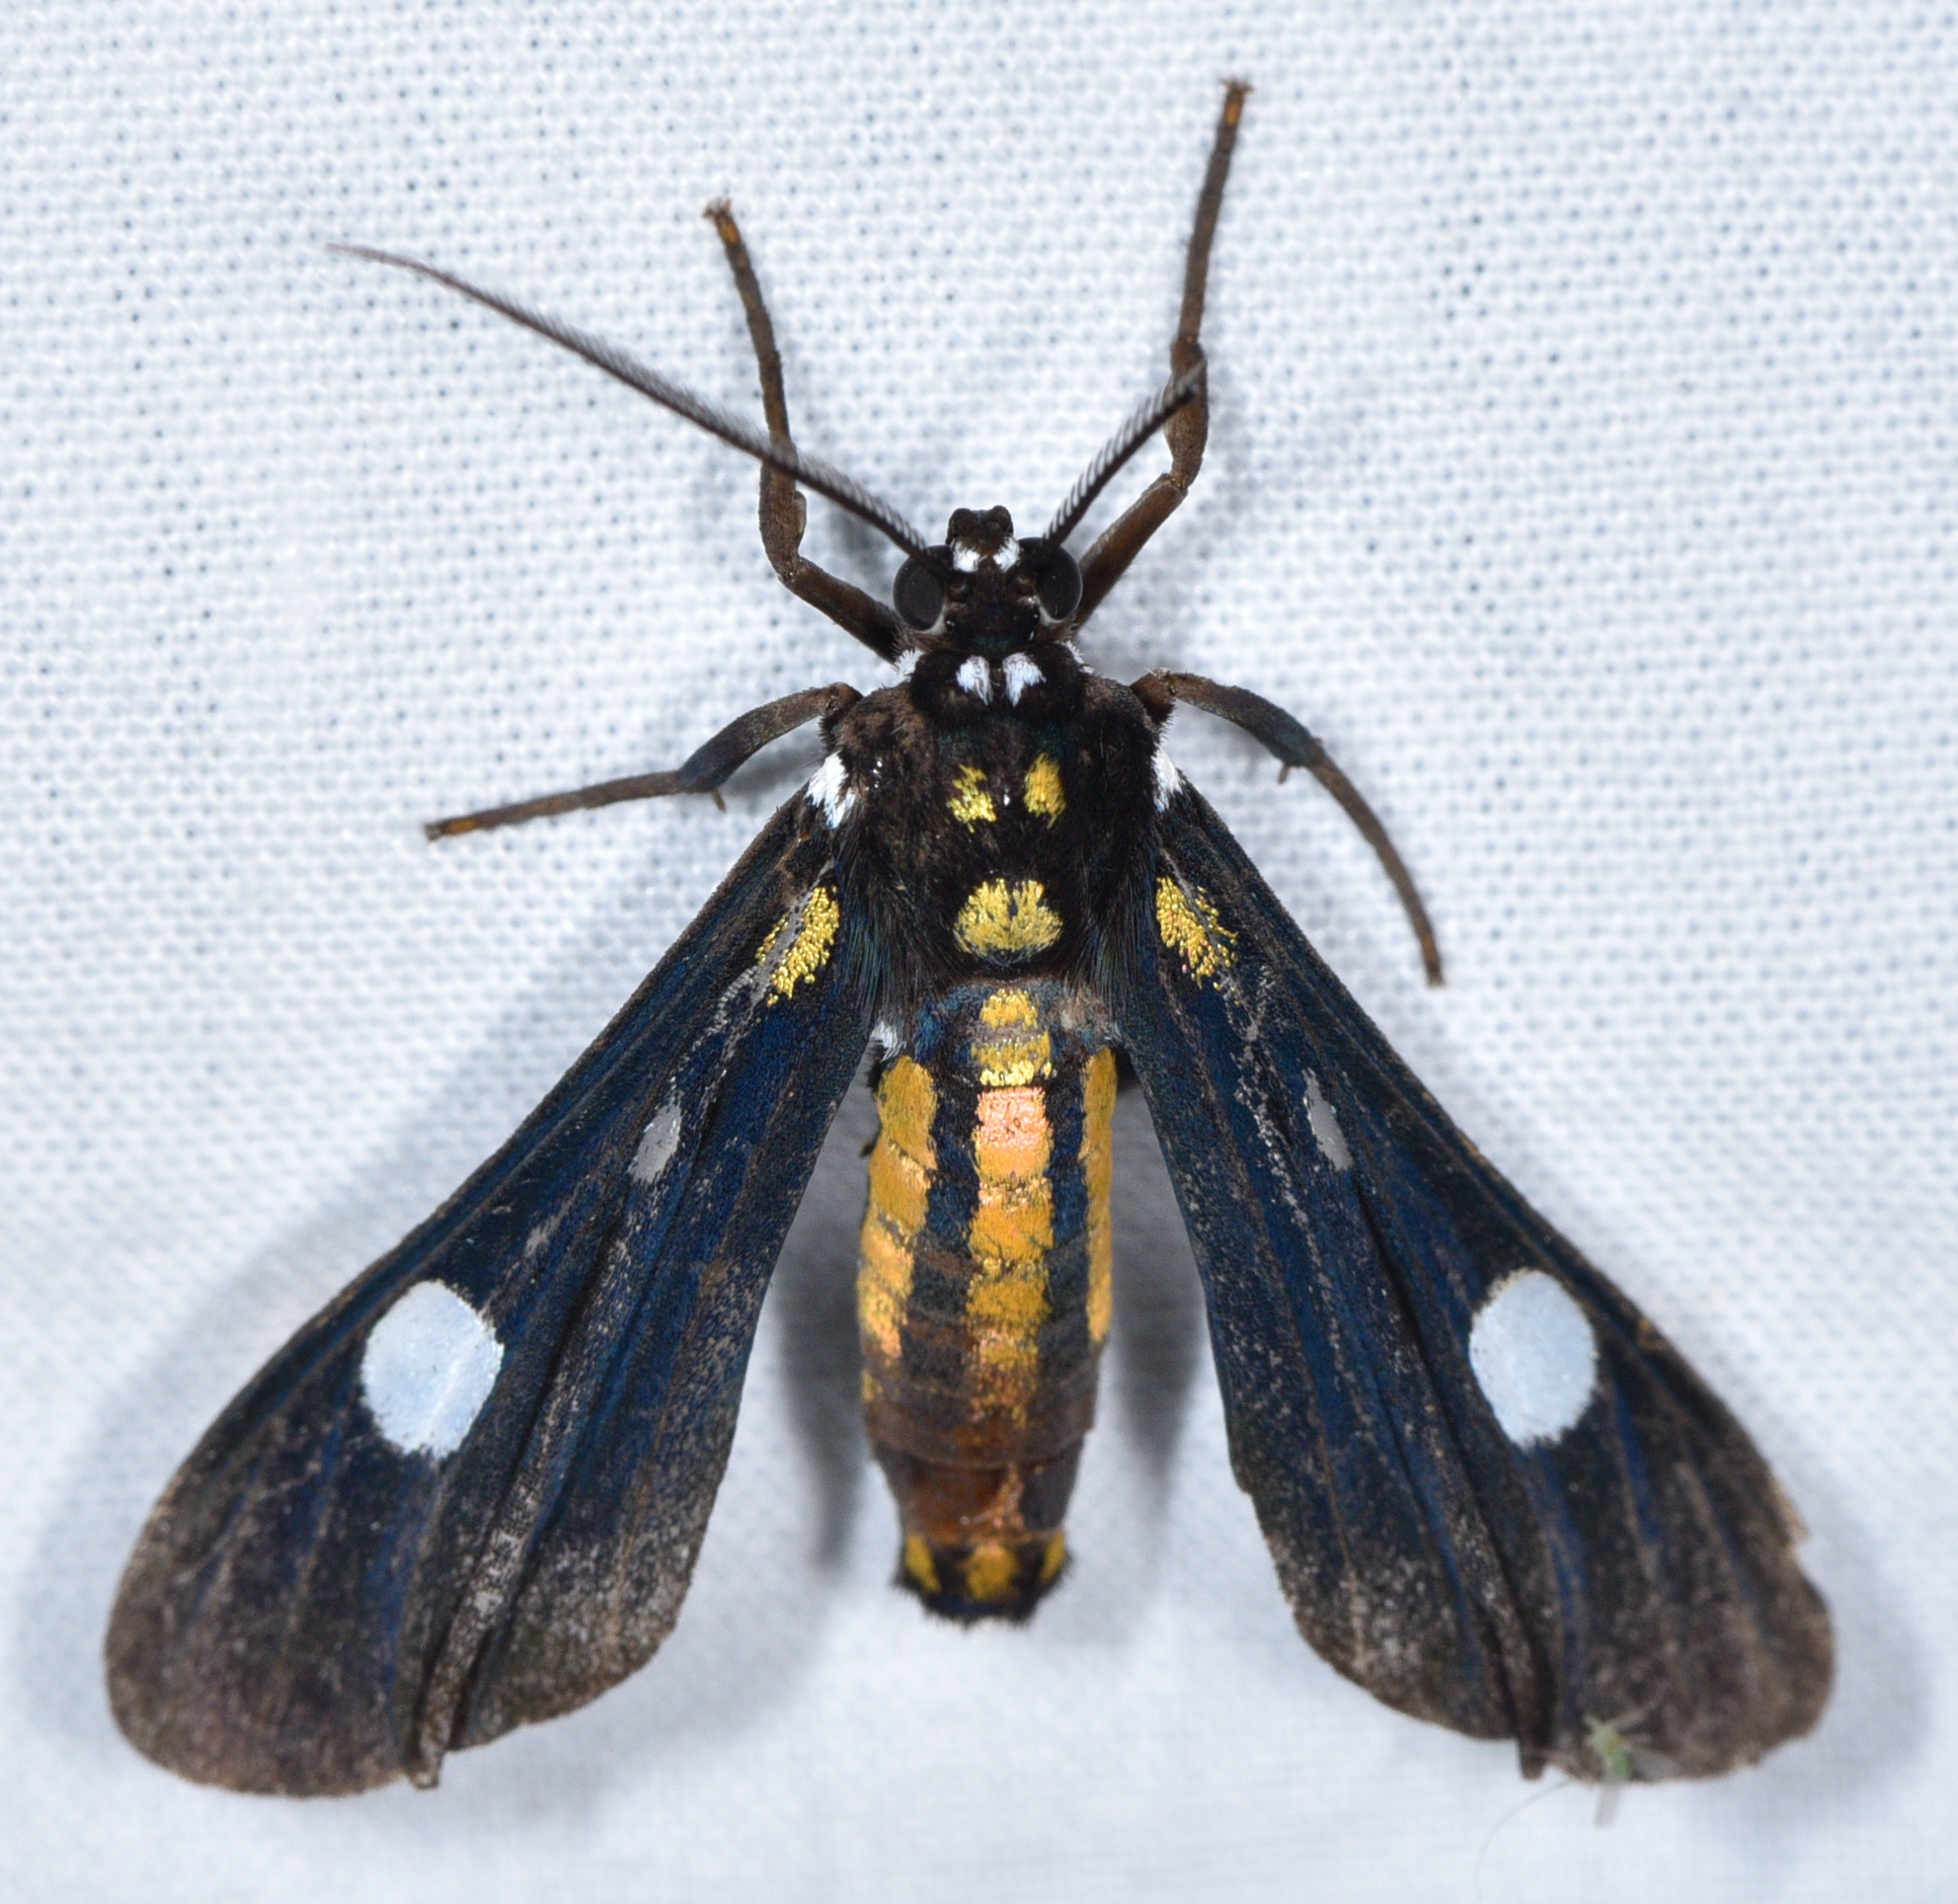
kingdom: Animalia
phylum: Arthropoda
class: Insecta
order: Lepidoptera
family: Erebidae
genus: Calonotos
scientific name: Calonotos
